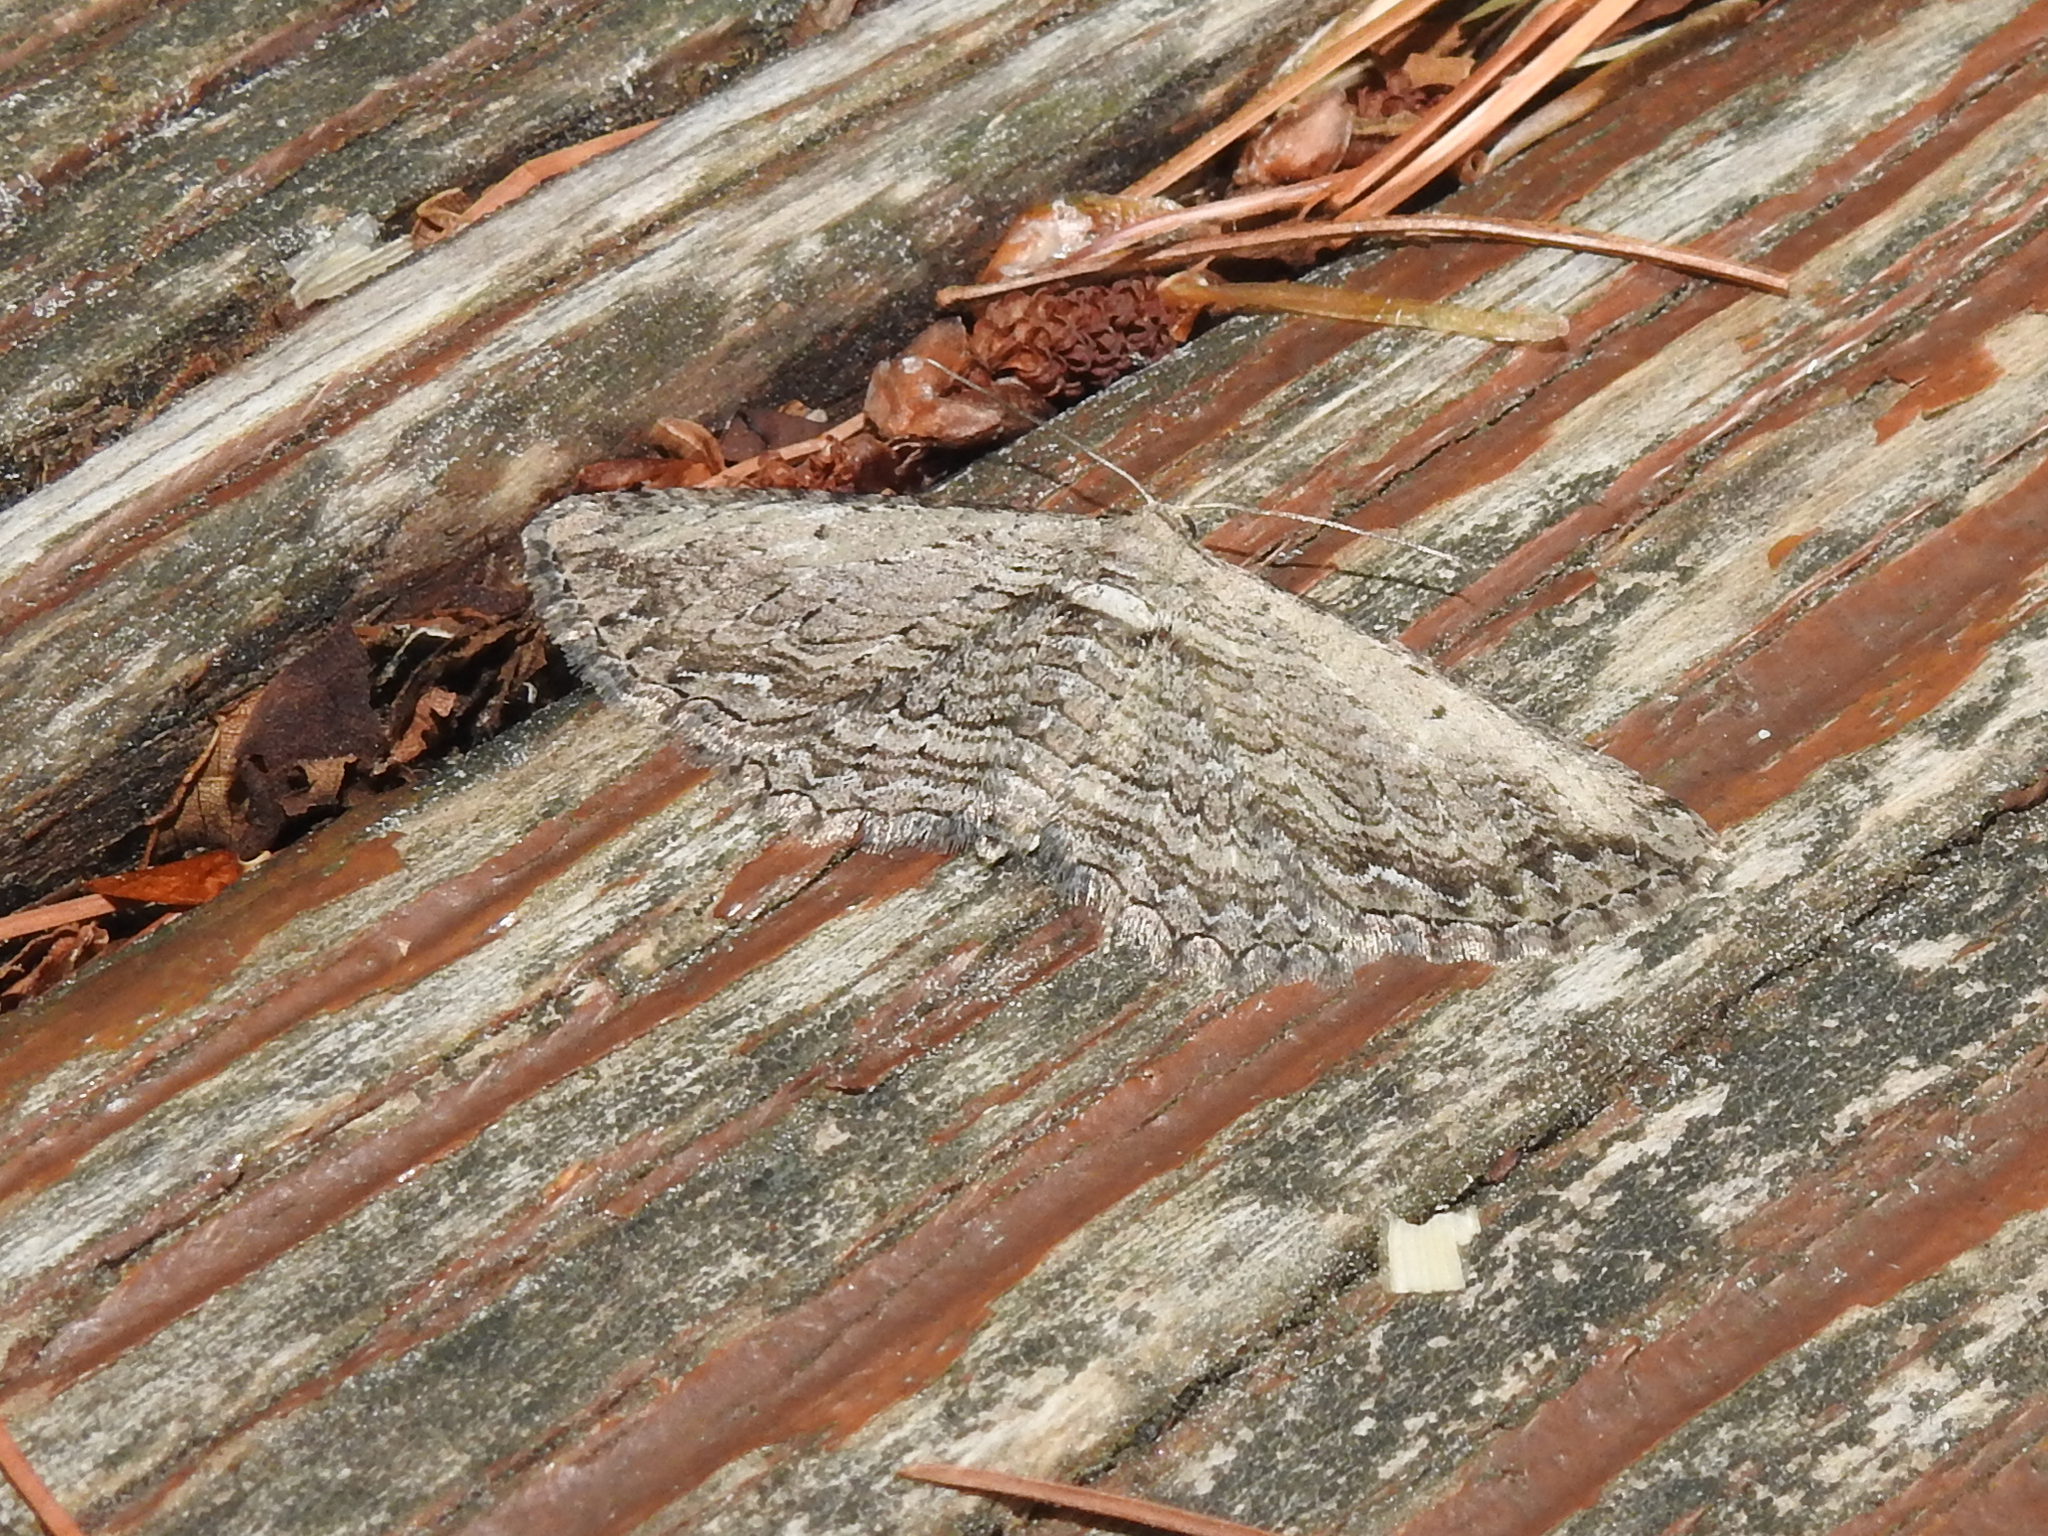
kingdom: Animalia
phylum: Arthropoda
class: Insecta
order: Lepidoptera
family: Geometridae
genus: Horisme
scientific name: Horisme intestinata
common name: Brown bark carpet
